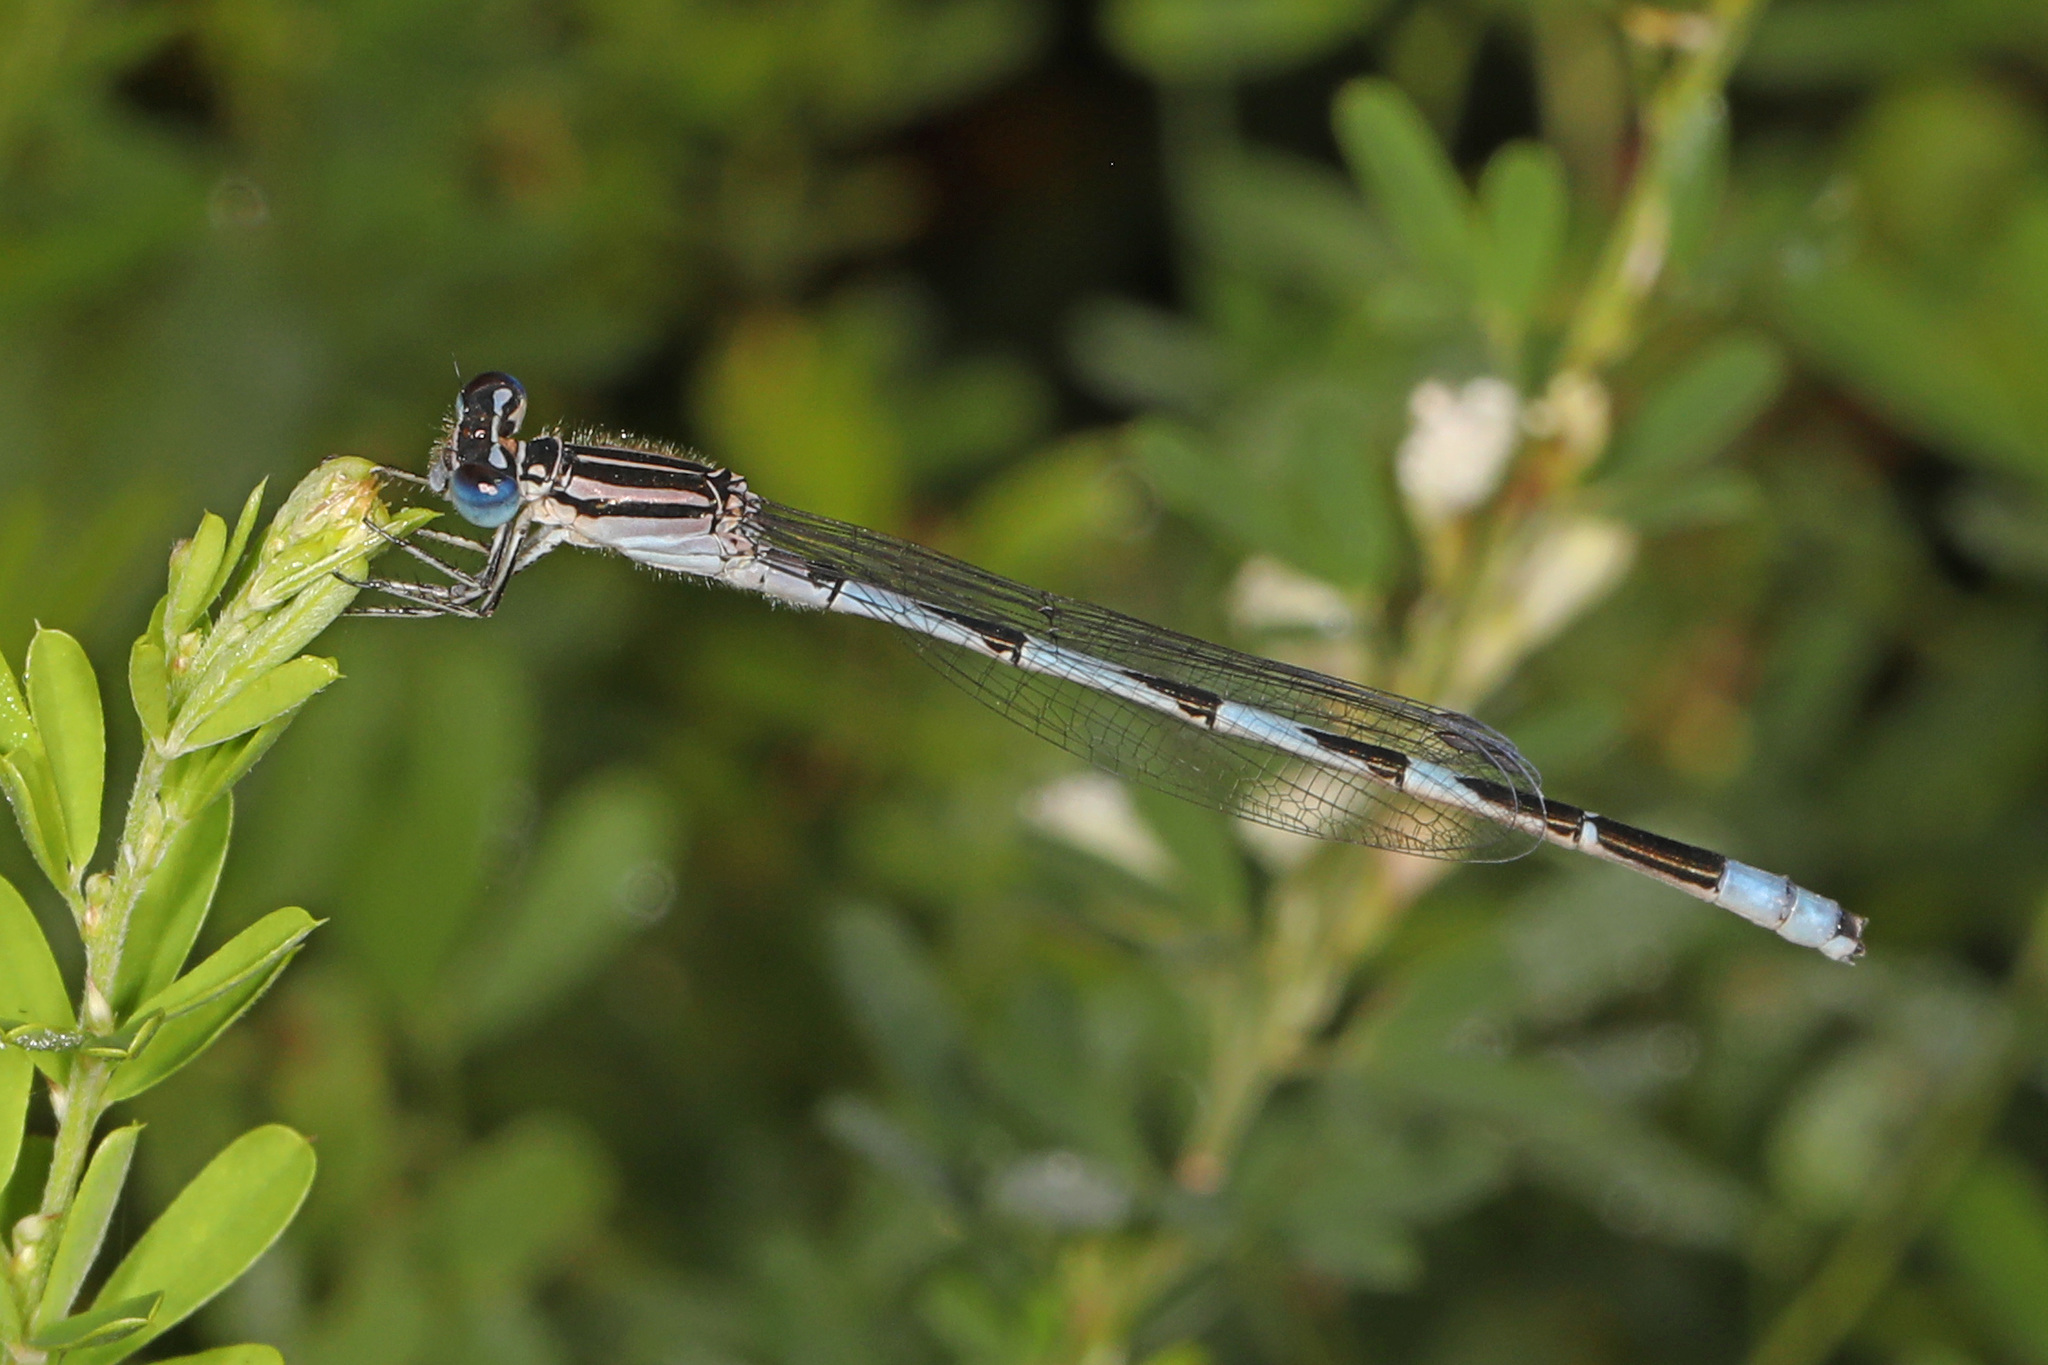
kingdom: Animalia
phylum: Arthropoda
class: Insecta
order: Odonata
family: Coenagrionidae
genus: Enallagma
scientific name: Enallagma durum
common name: Big bluet
